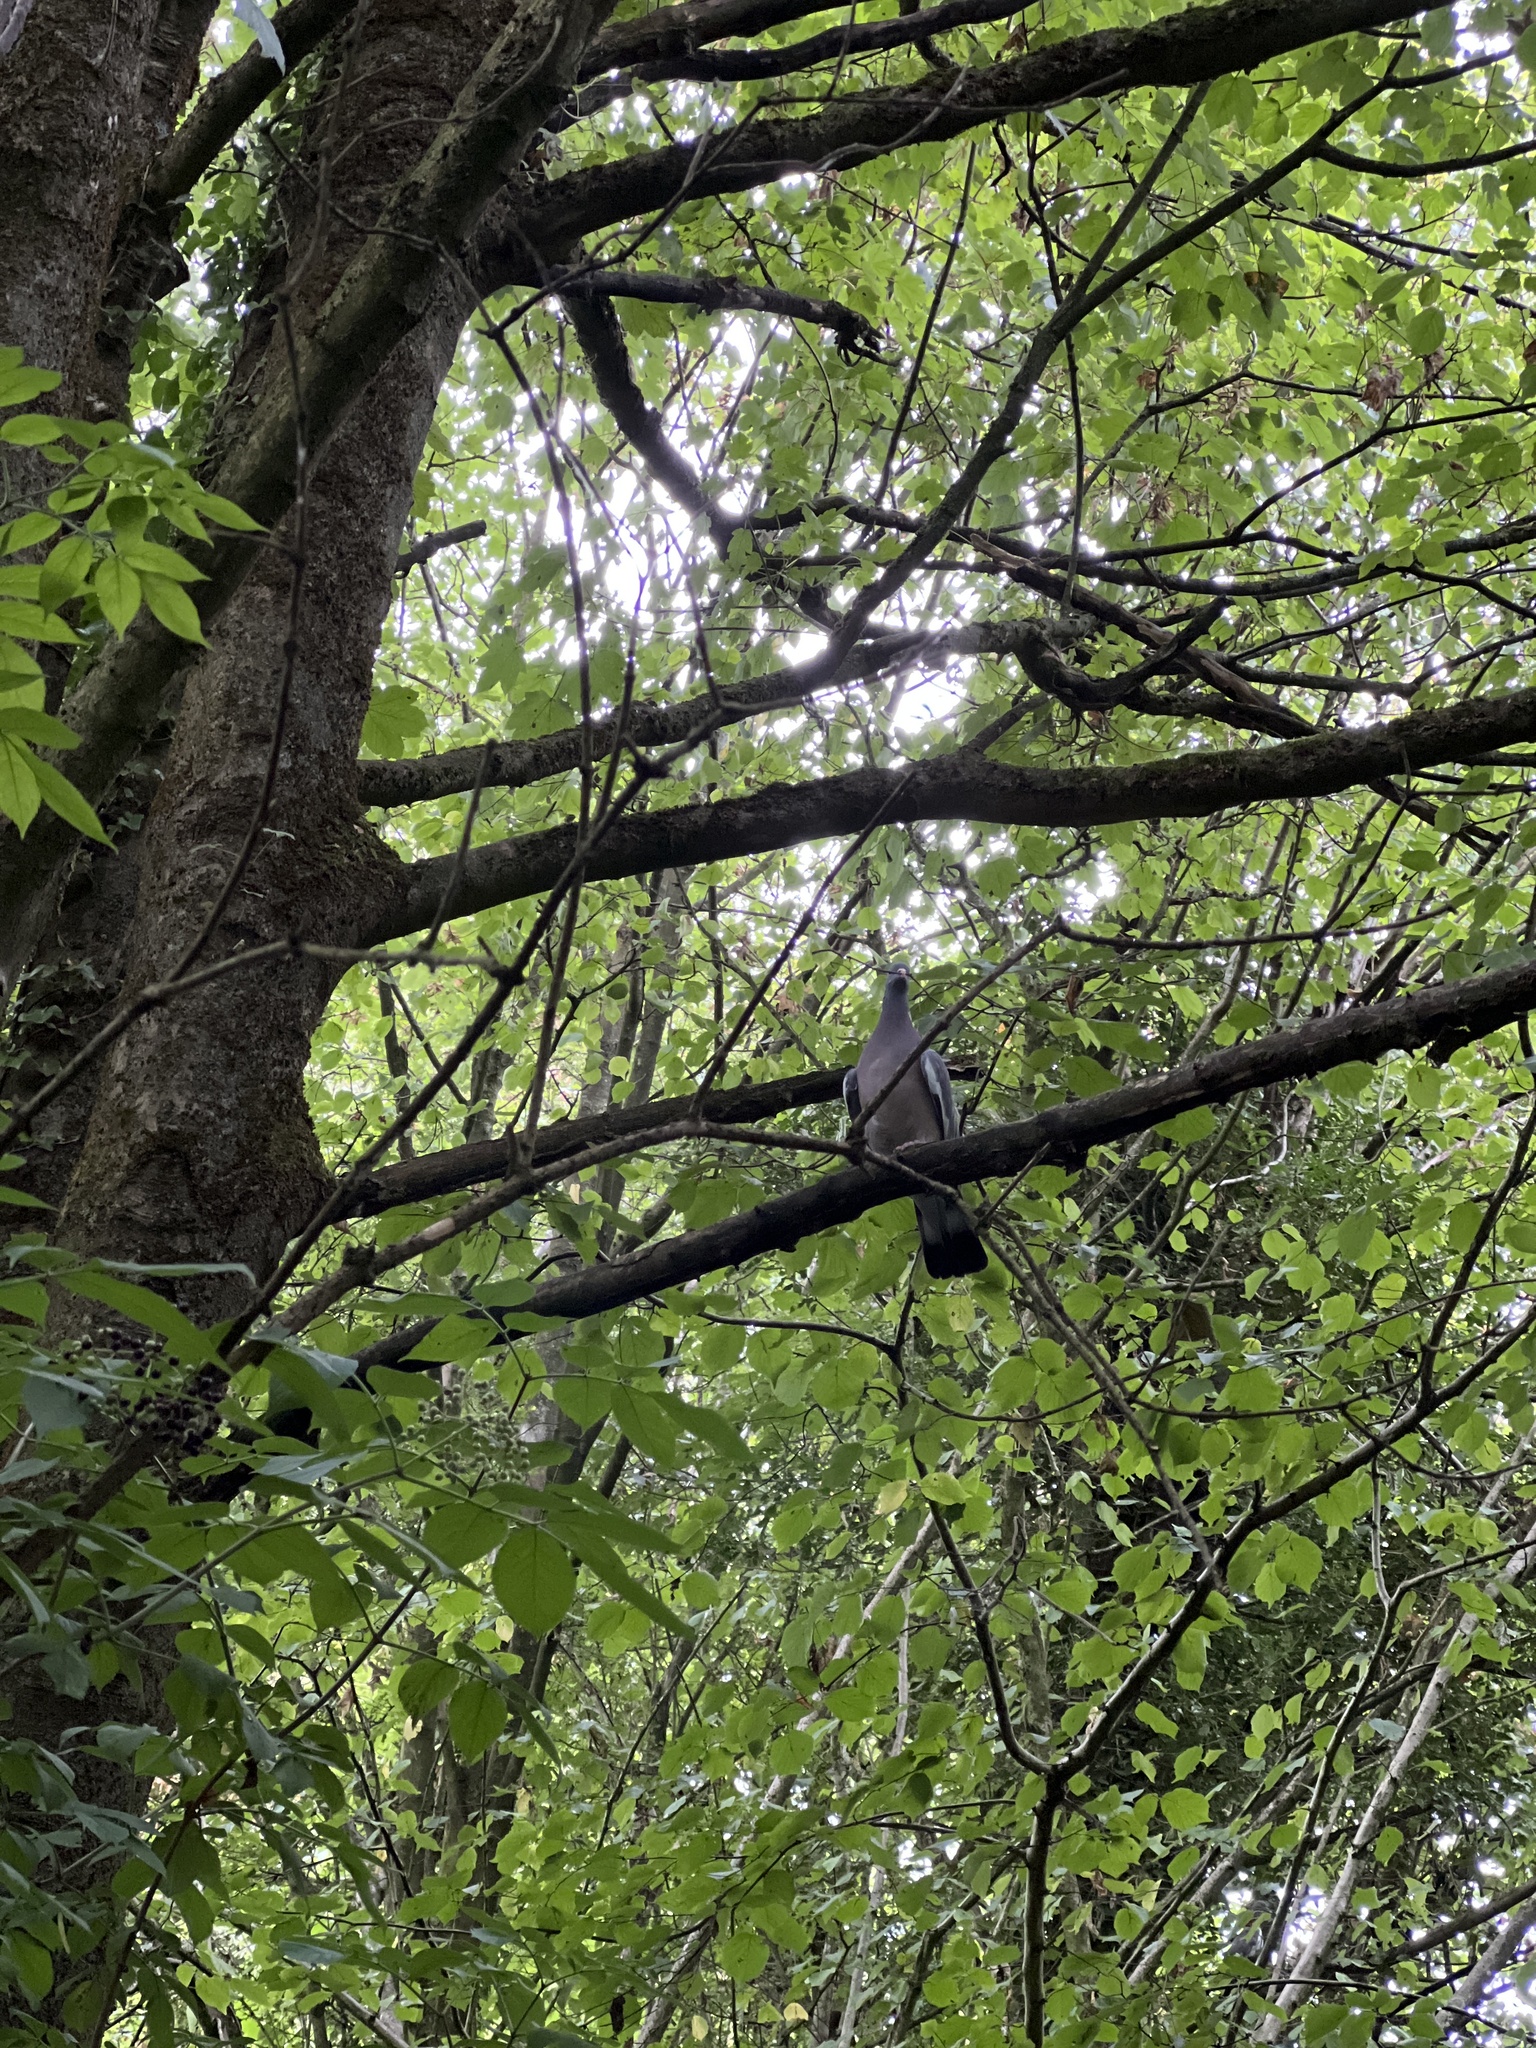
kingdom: Animalia
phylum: Chordata
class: Aves
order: Columbiformes
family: Columbidae
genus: Columba
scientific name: Columba palumbus
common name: Common wood pigeon
